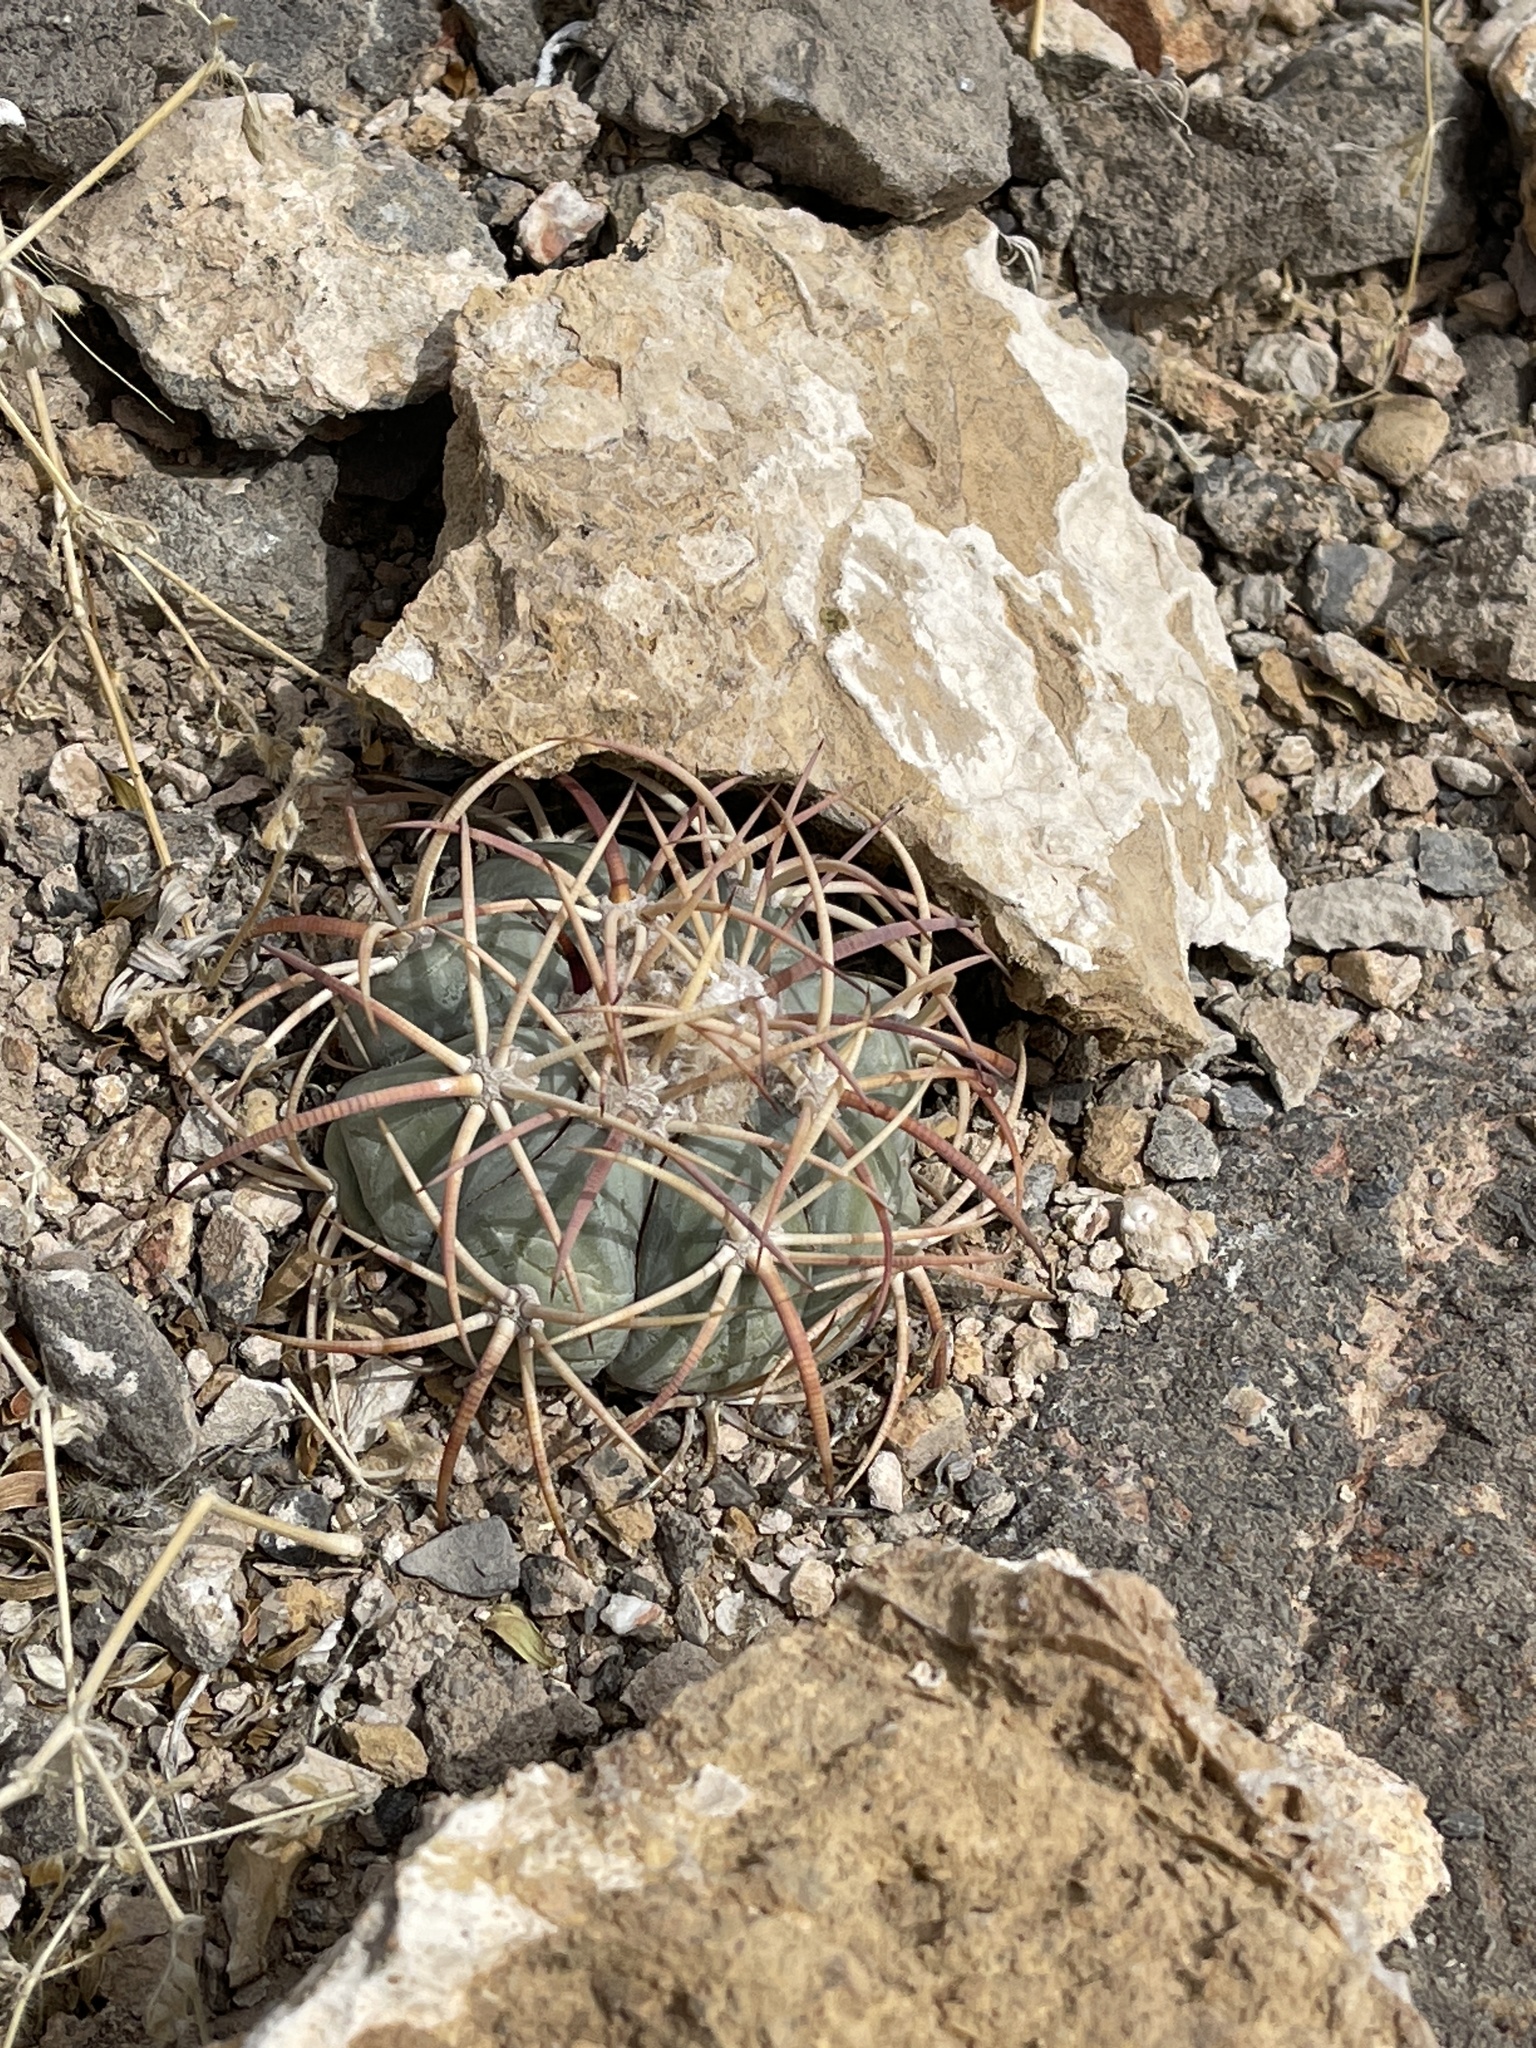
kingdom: Plantae
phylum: Tracheophyta
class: Magnoliopsida
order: Caryophyllales
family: Cactaceae
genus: Echinocactus
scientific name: Echinocactus horizonthalonius
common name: Devilshead
